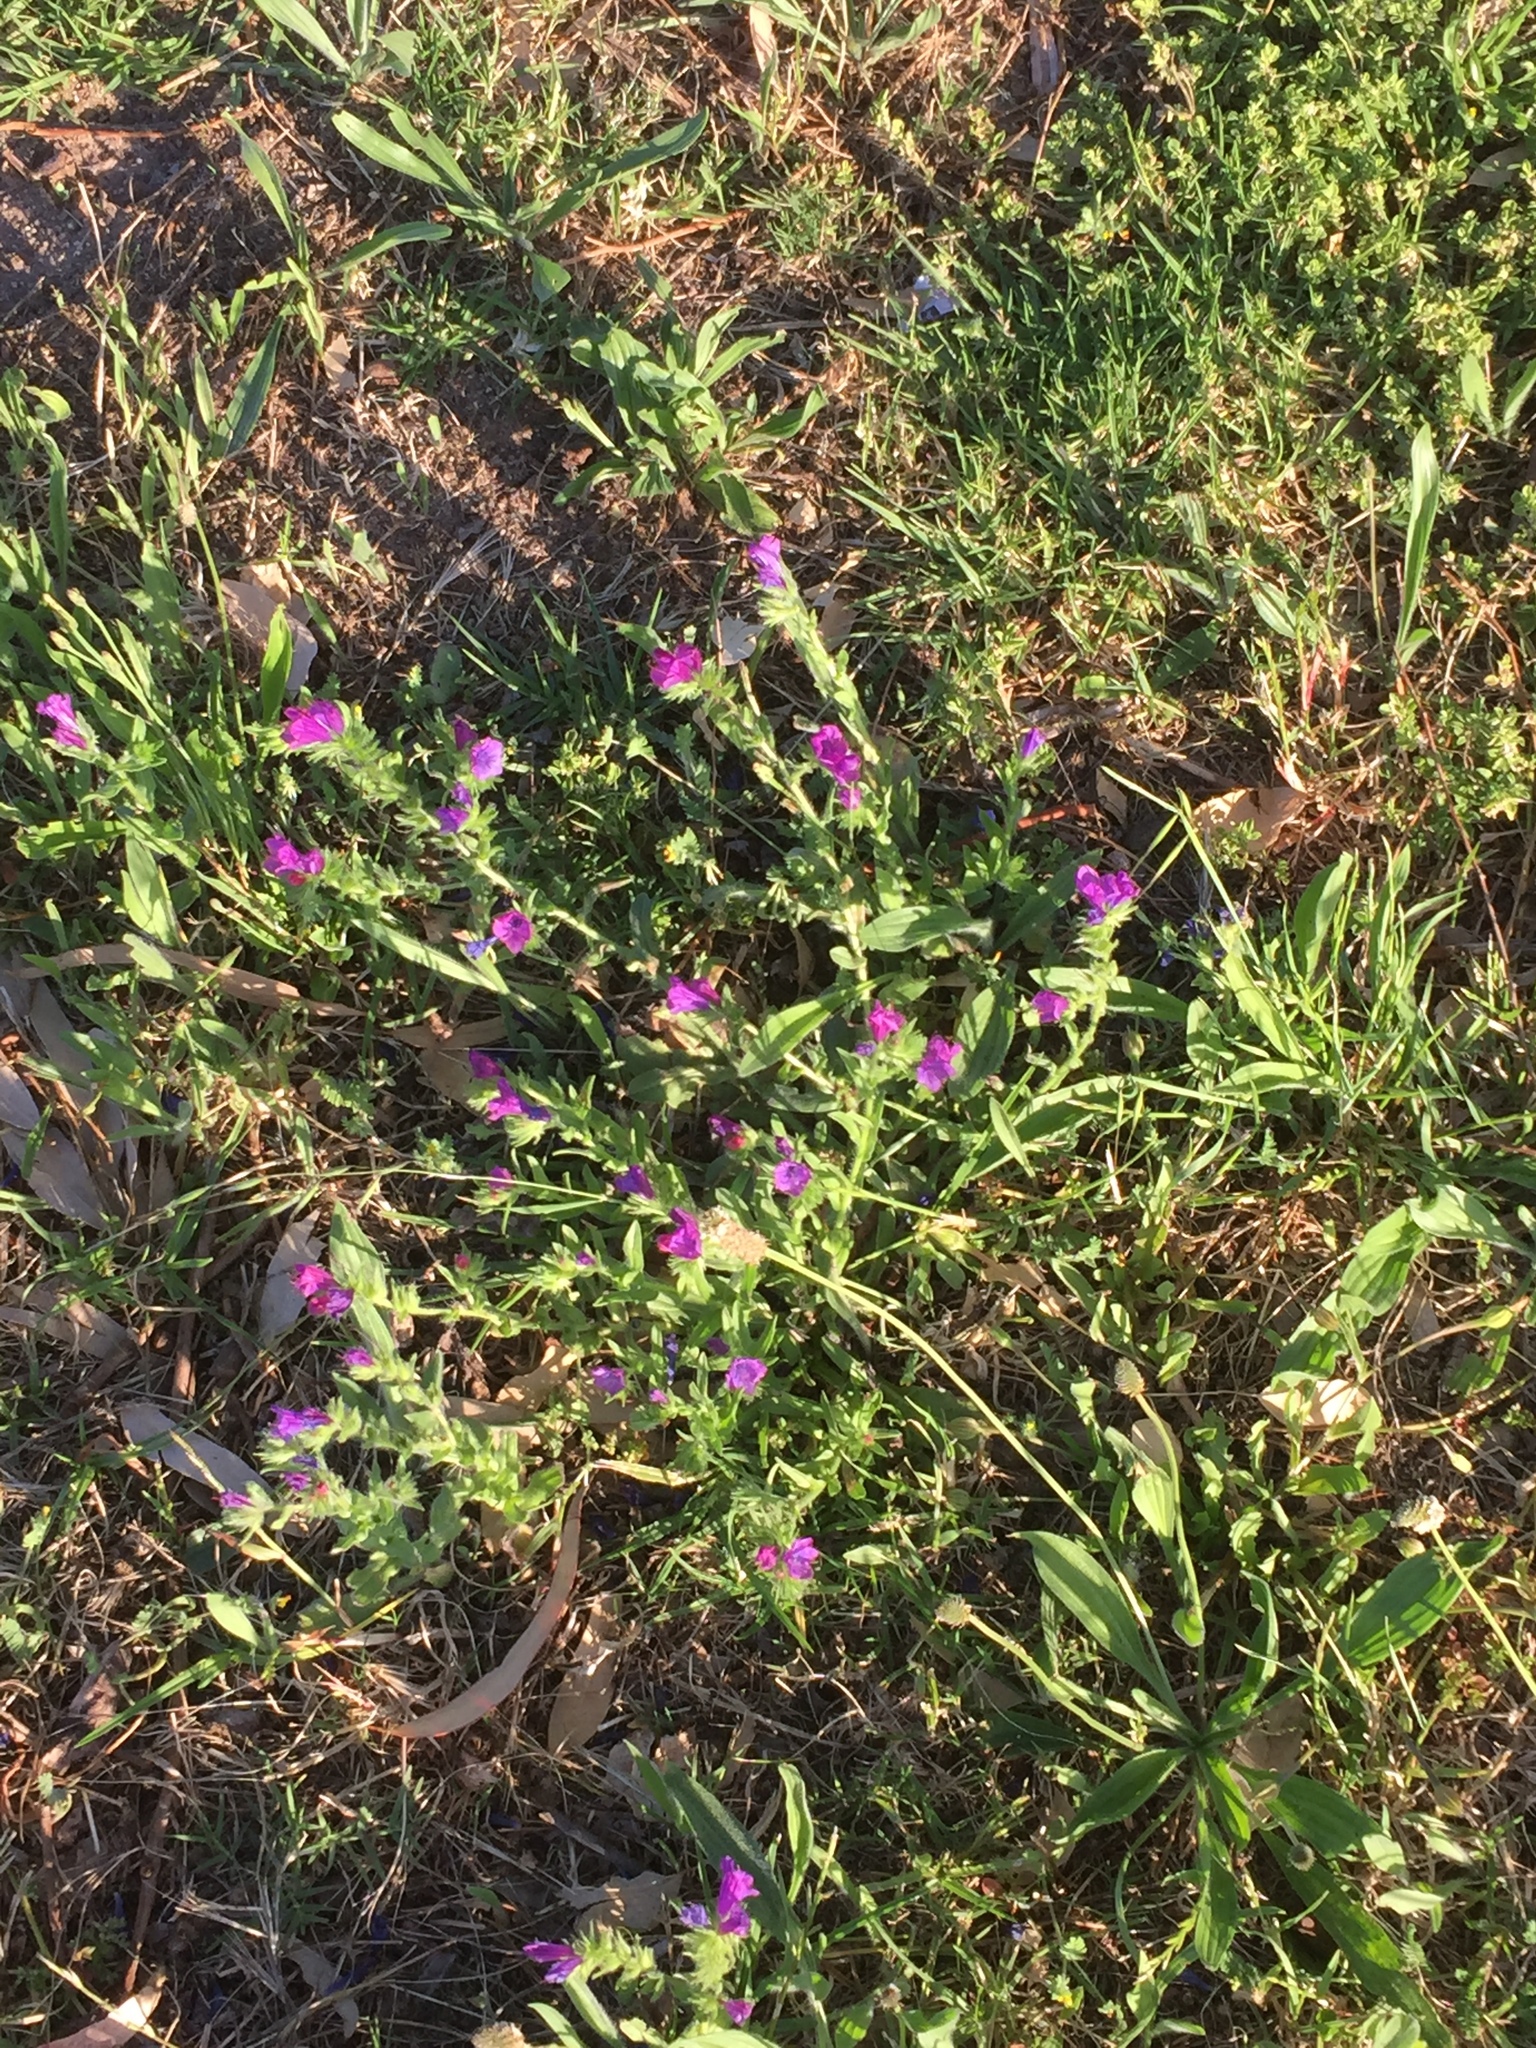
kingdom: Plantae
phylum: Tracheophyta
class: Magnoliopsida
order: Boraginales
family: Boraginaceae
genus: Echium
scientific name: Echium plantagineum
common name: Purple viper's-bugloss
